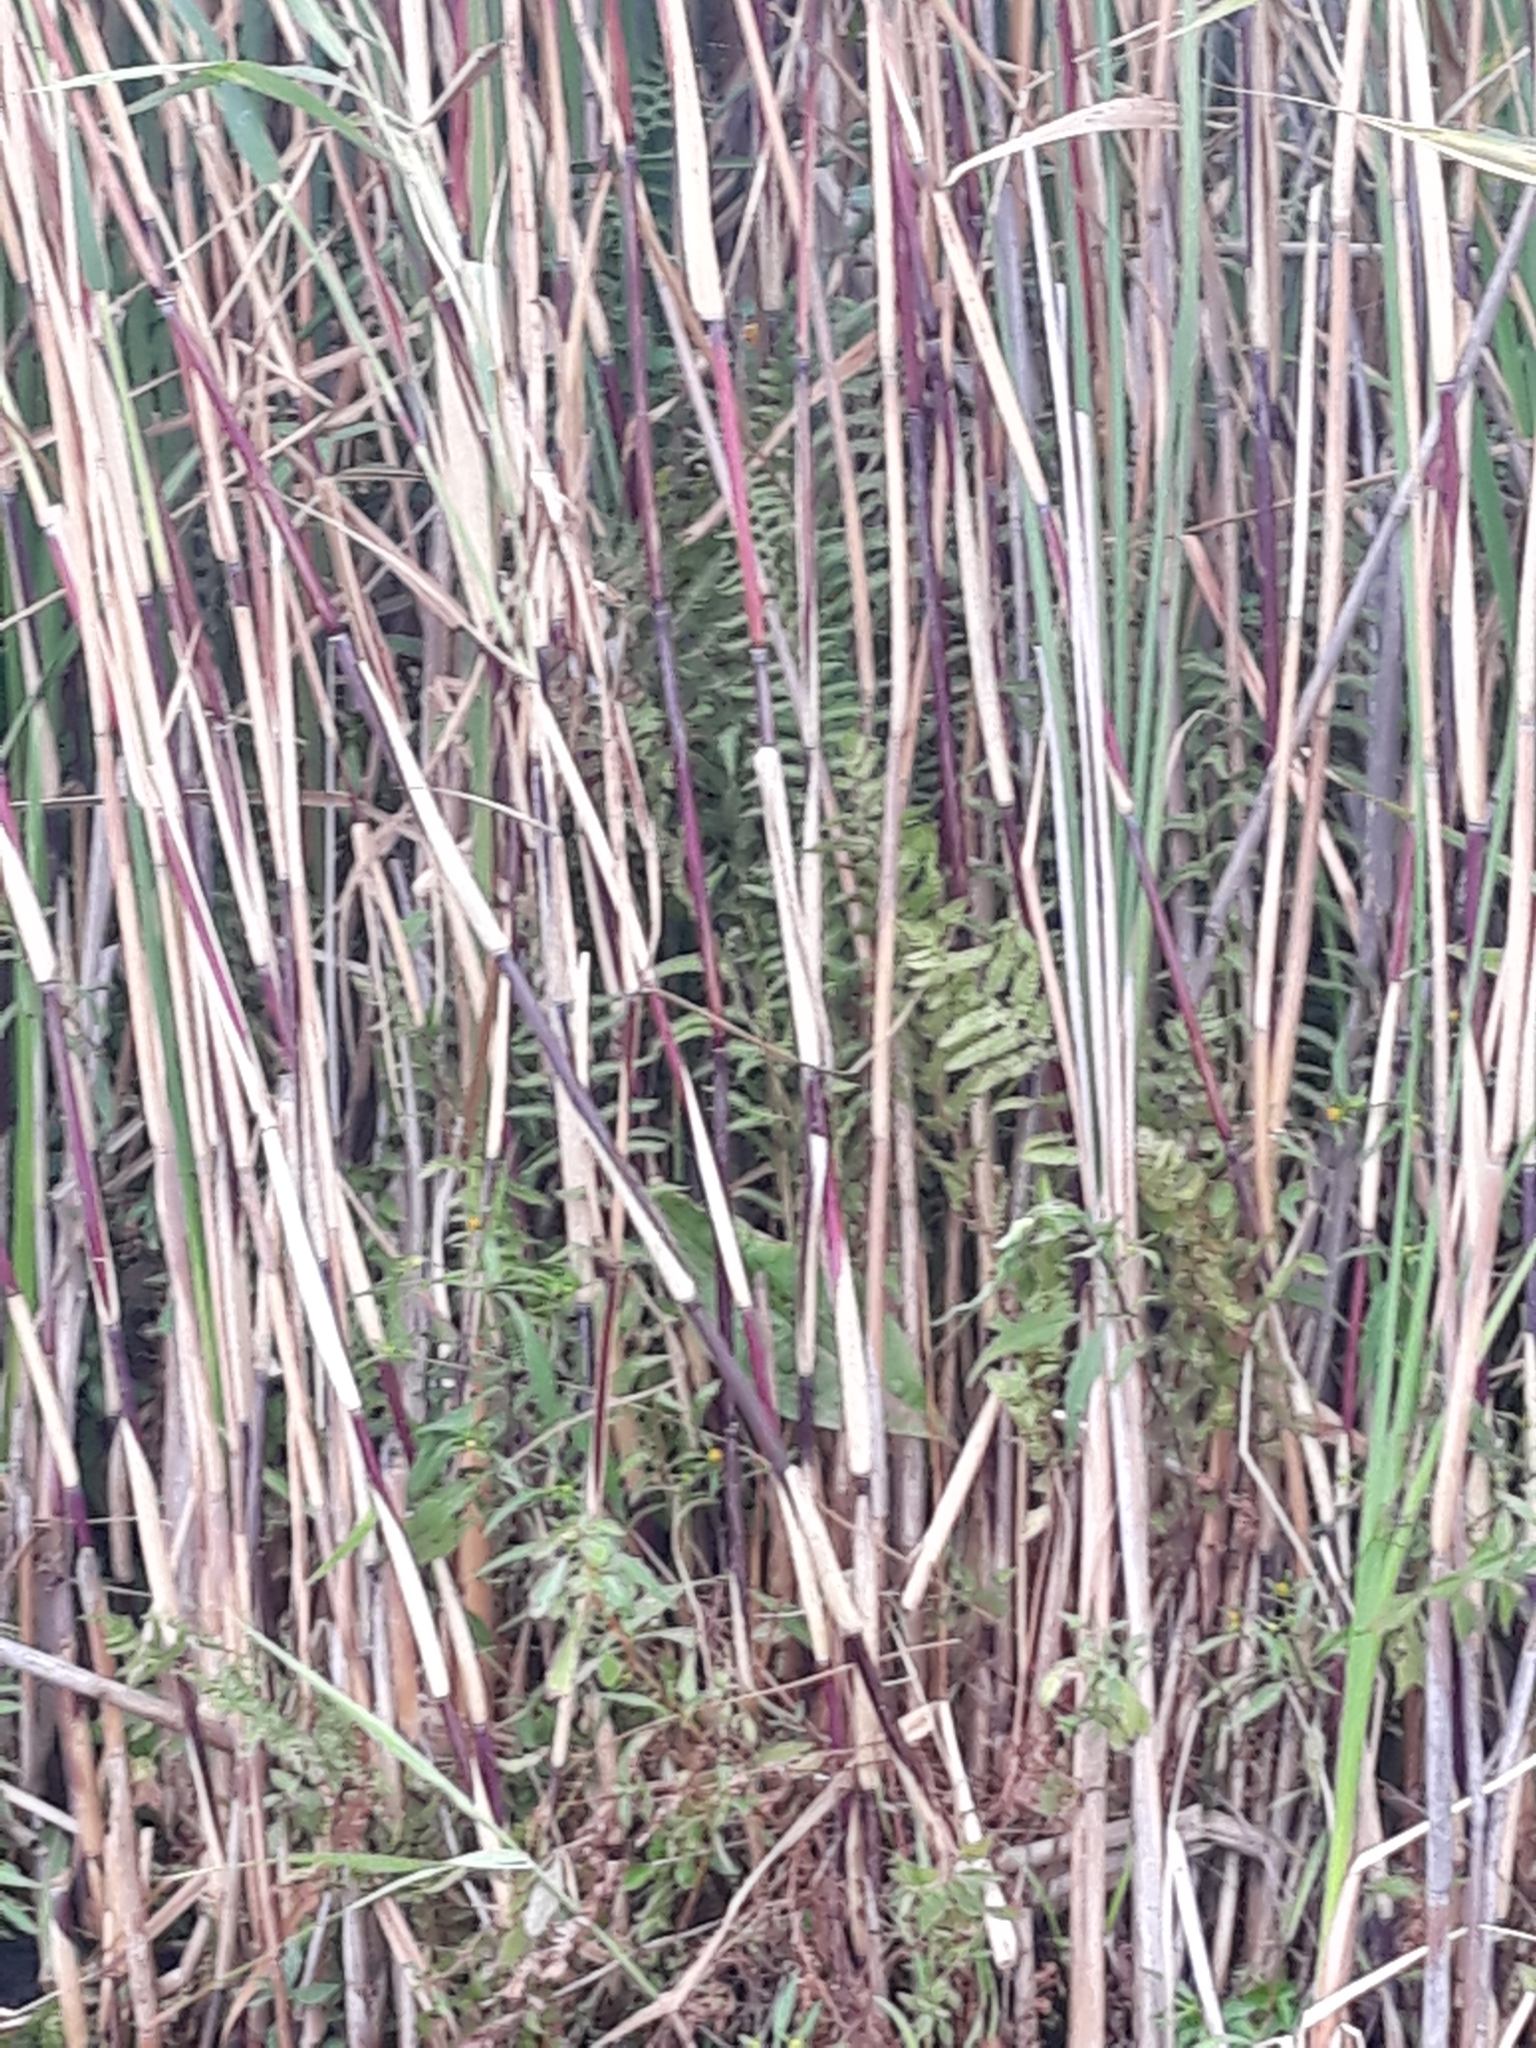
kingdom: Plantae
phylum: Tracheophyta
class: Liliopsida
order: Poales
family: Poaceae
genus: Phragmites
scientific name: Phragmites australis
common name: Common reed
